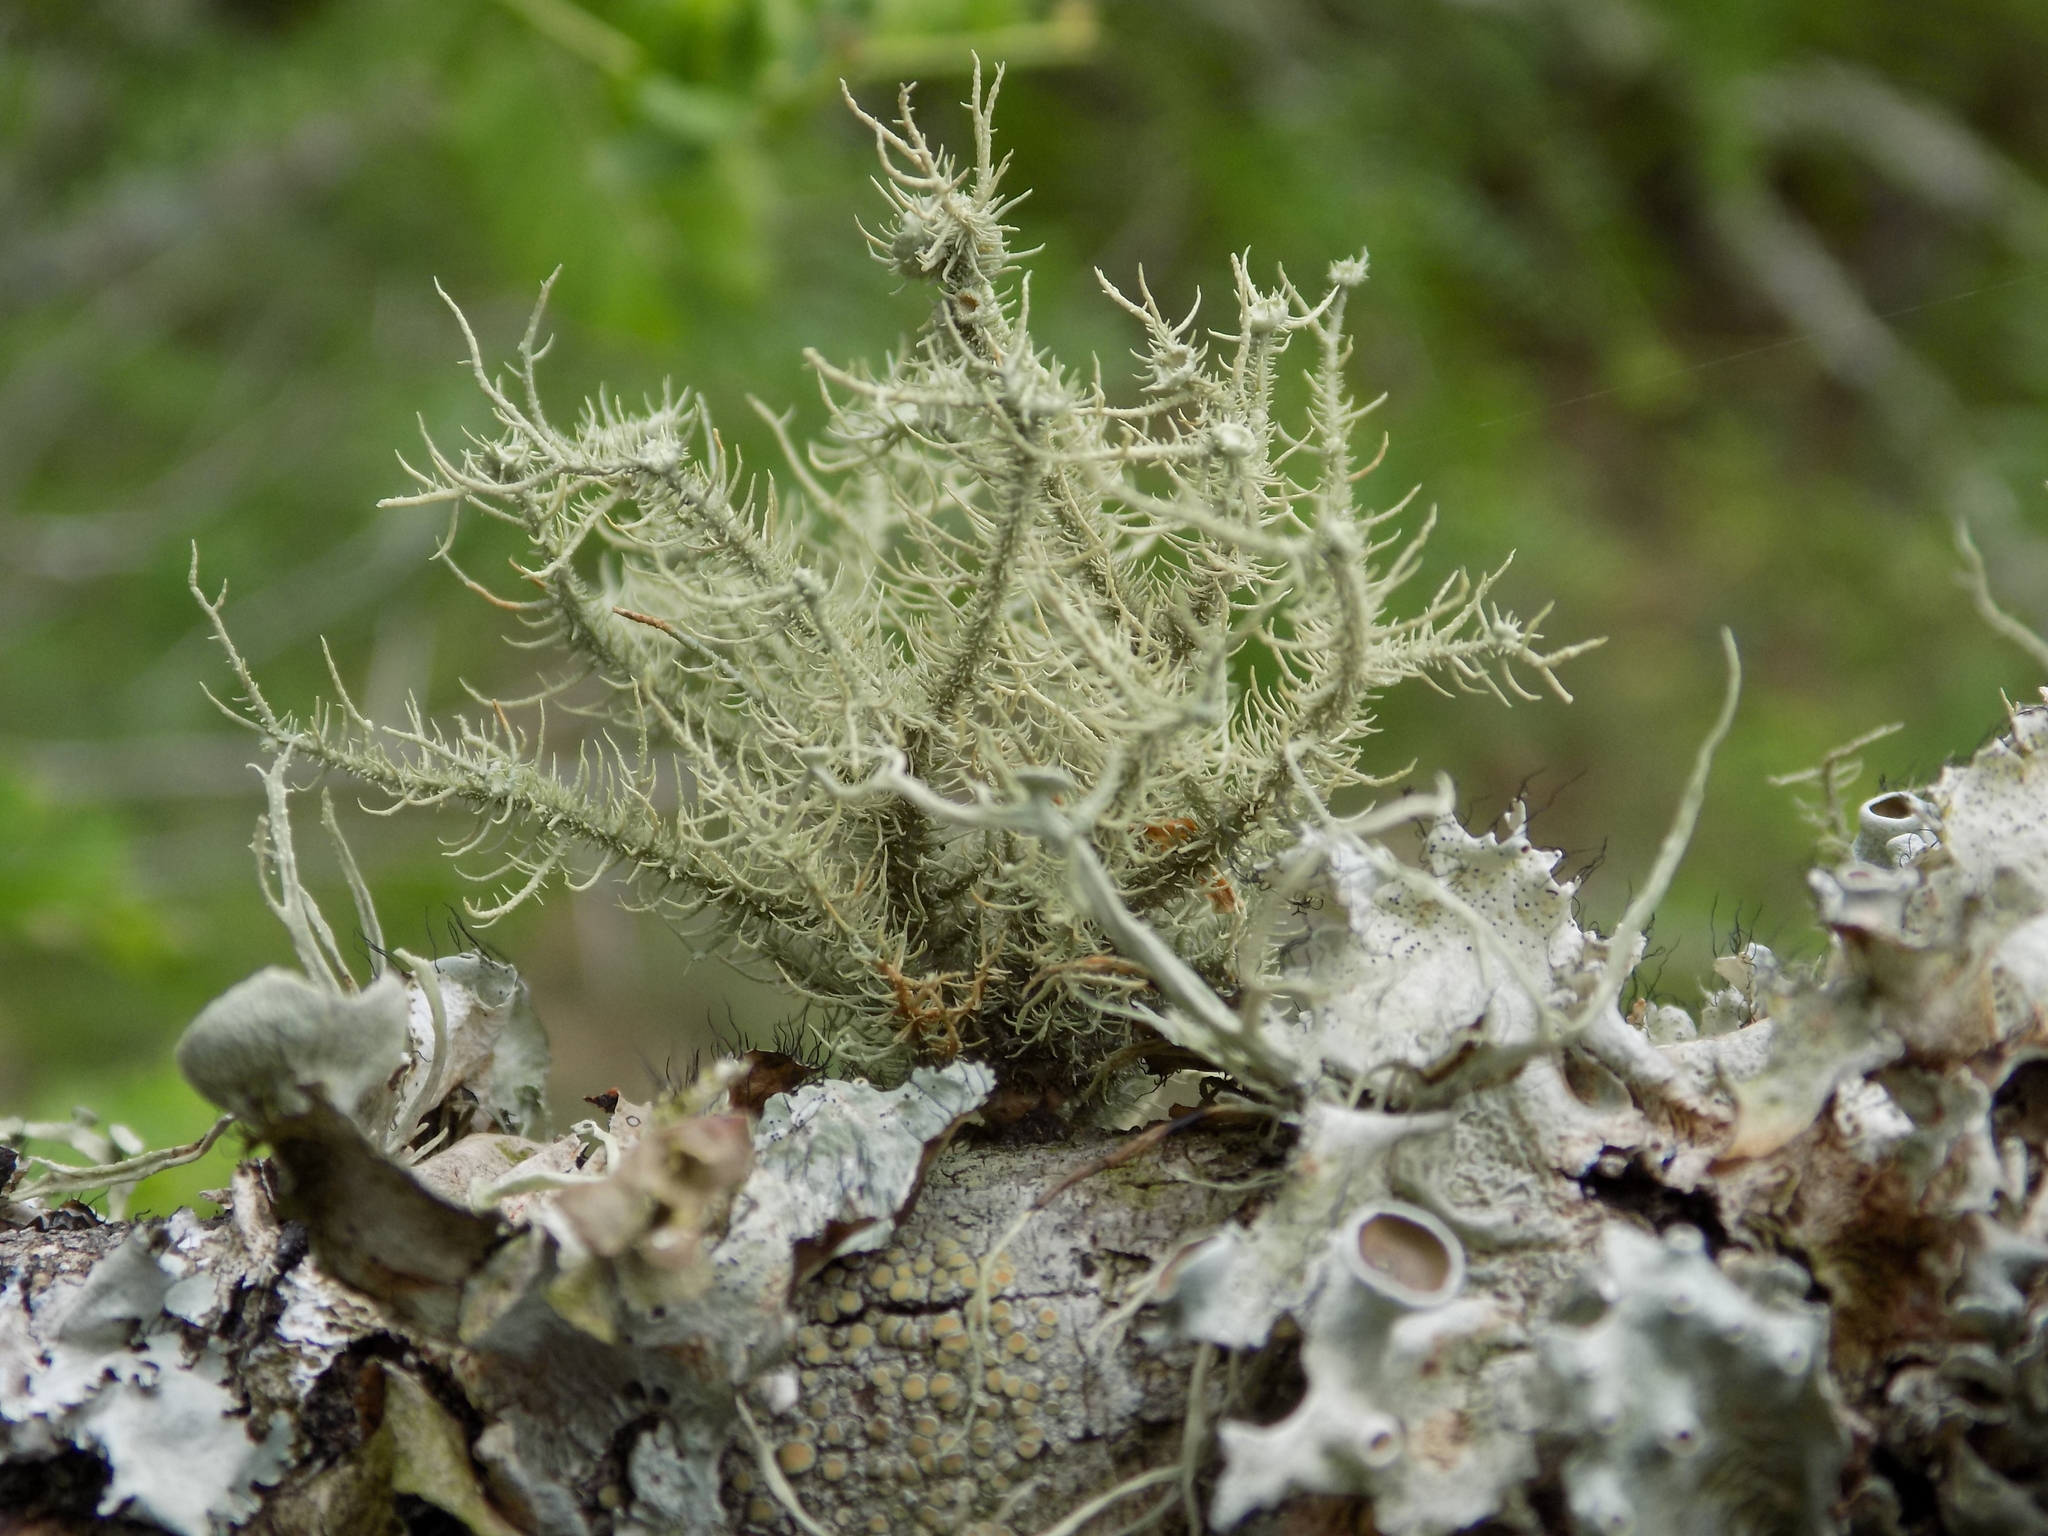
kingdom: Fungi
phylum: Ascomycota
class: Lecanoromycetes
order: Lecanorales
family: Parmeliaceae
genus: Usnea
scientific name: Usnea strigosa
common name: Bushy beard lichen
